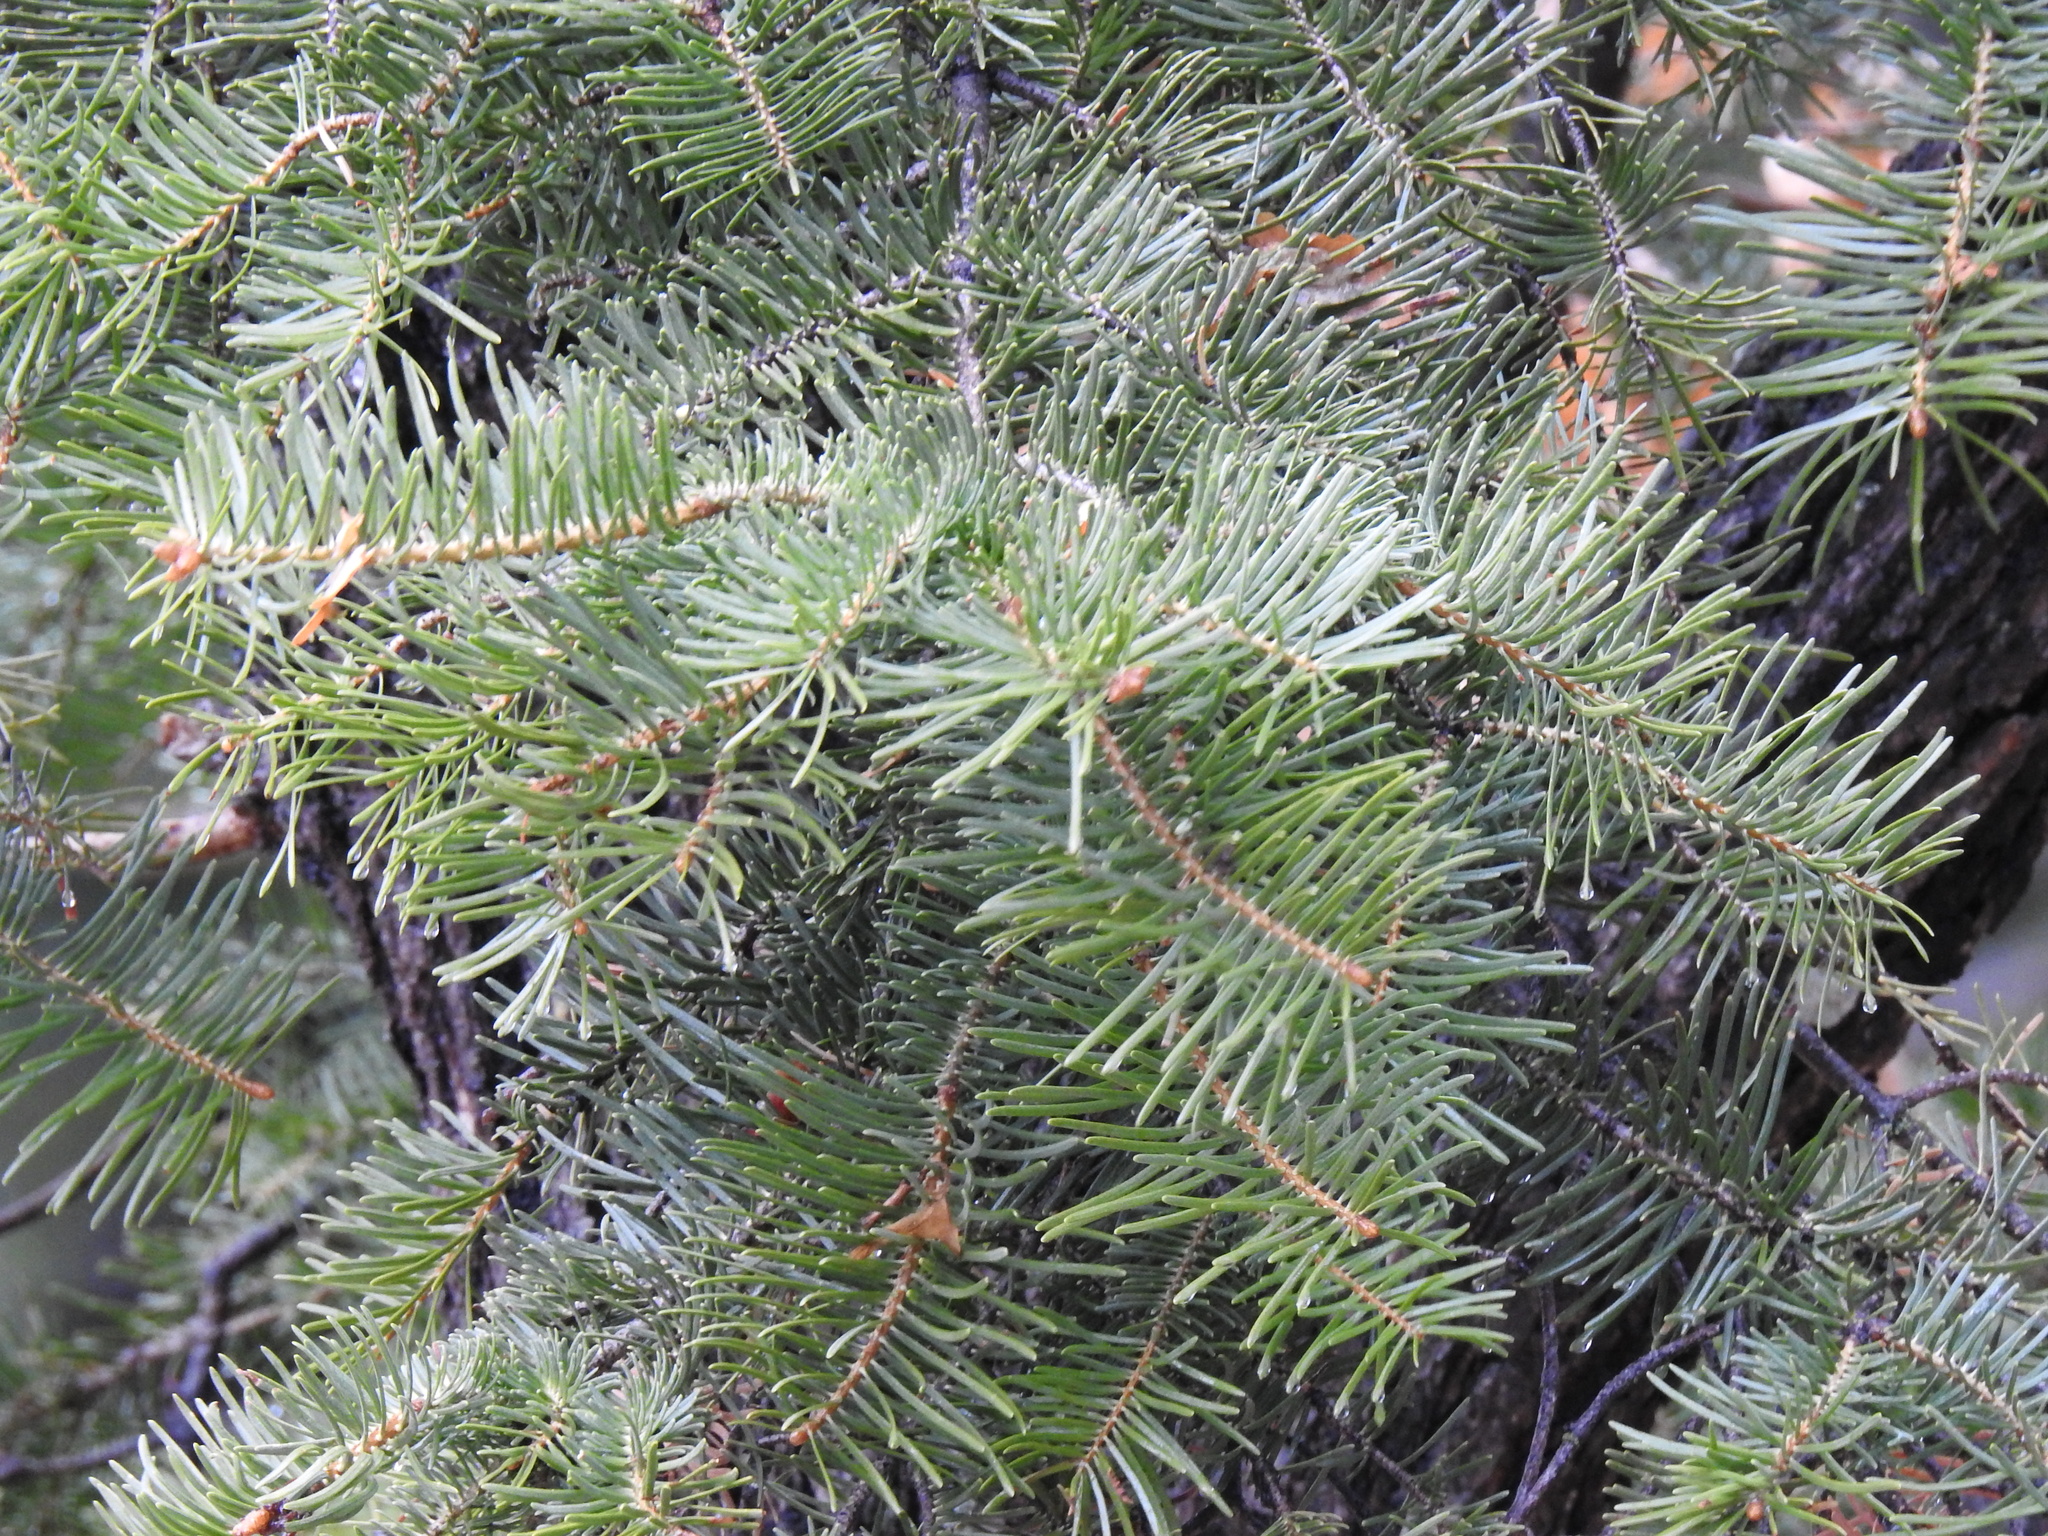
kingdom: Plantae
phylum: Tracheophyta
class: Pinopsida
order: Pinales
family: Pinaceae
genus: Abies
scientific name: Abies concolor
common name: Colorado fir
